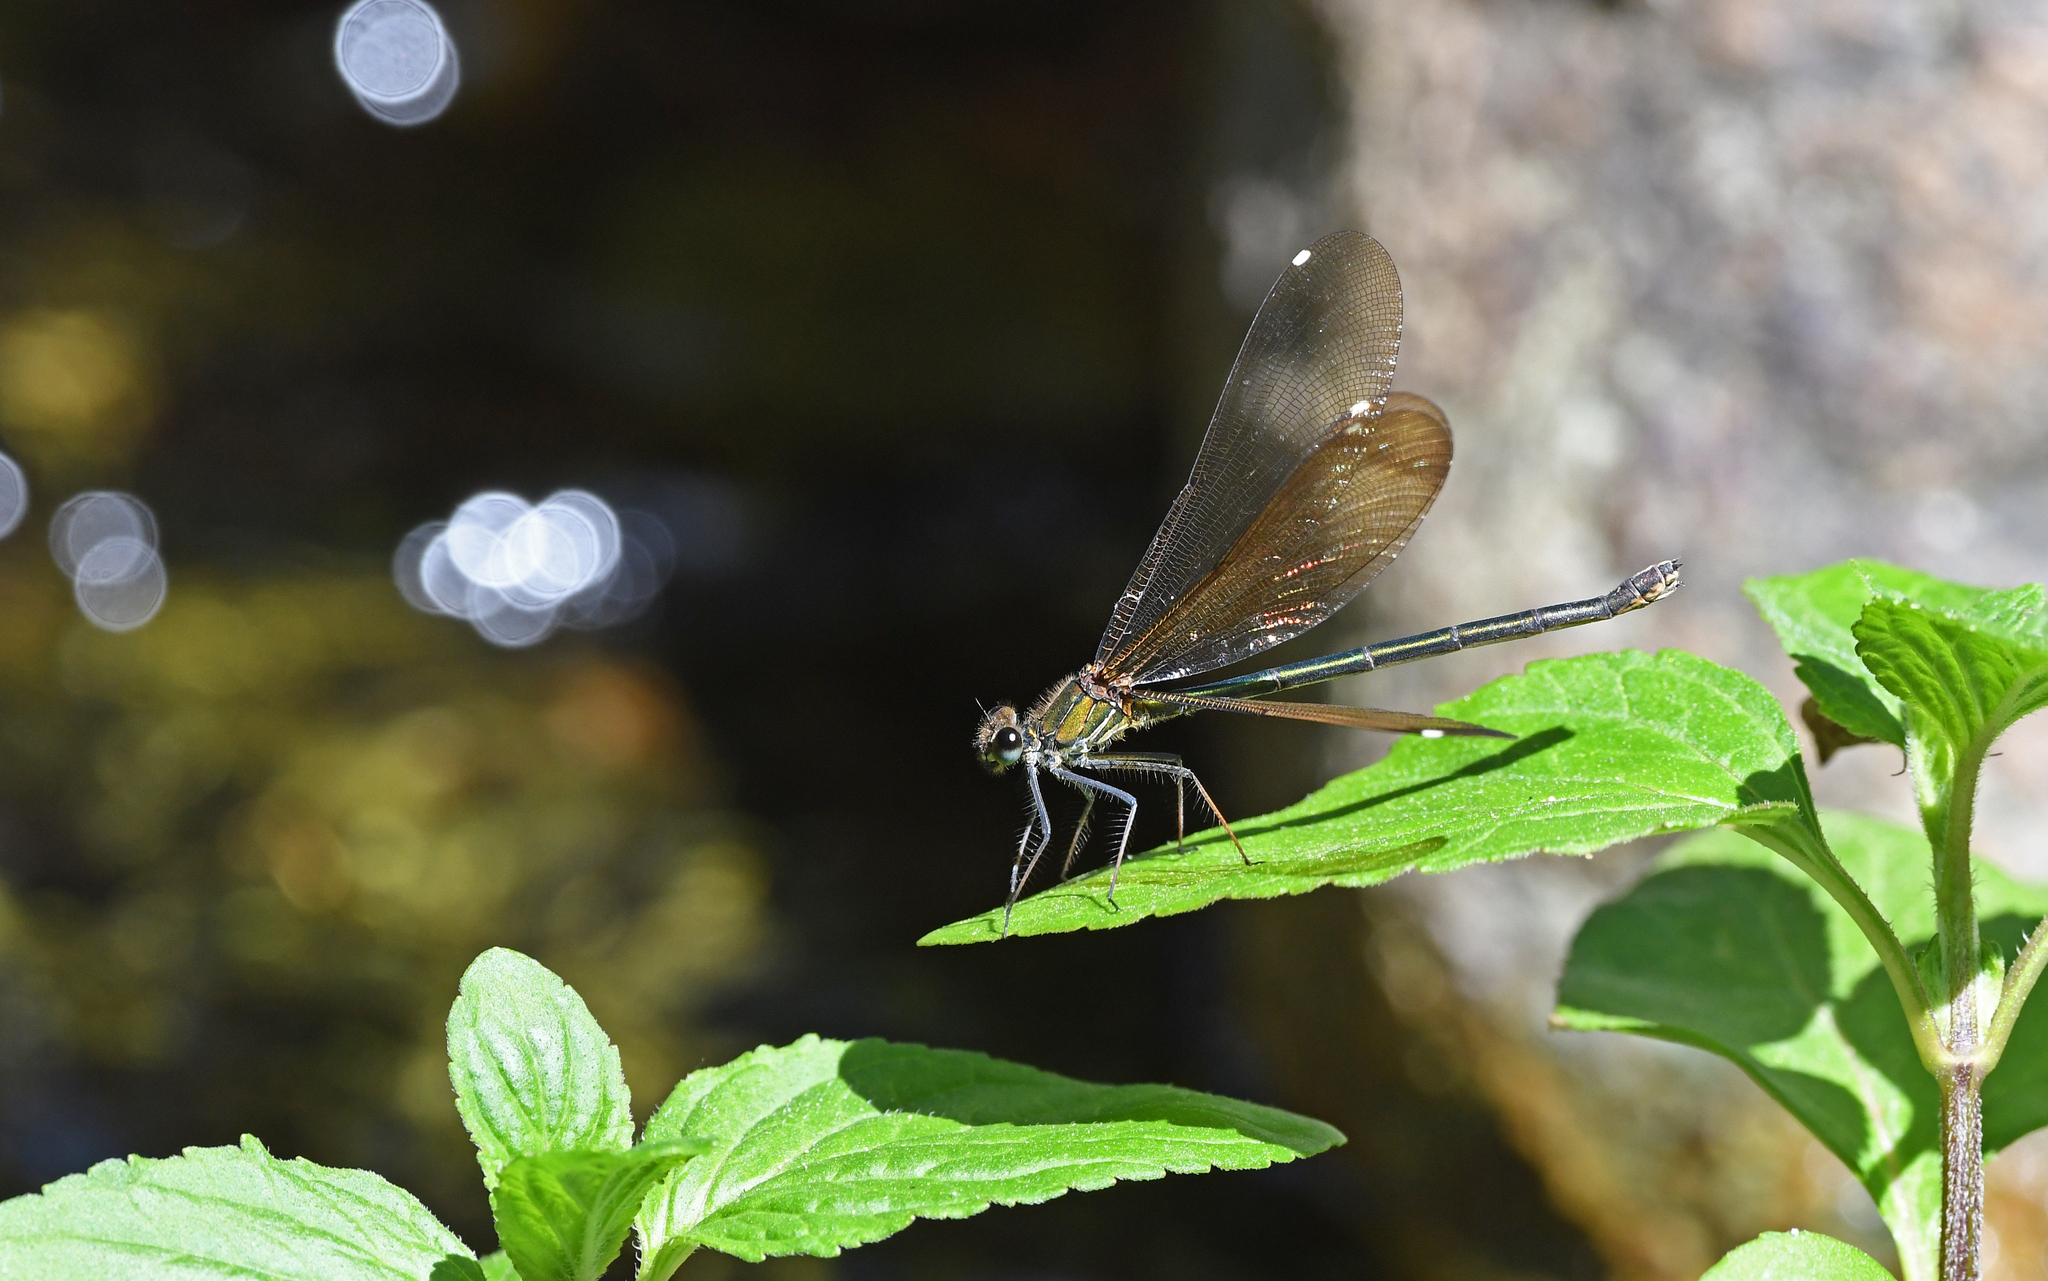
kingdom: Animalia
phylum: Arthropoda
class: Insecta
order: Odonata
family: Calopterygidae
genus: Calopteryx
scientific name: Calopteryx haemorrhoidalis
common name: Copper demoiselle
